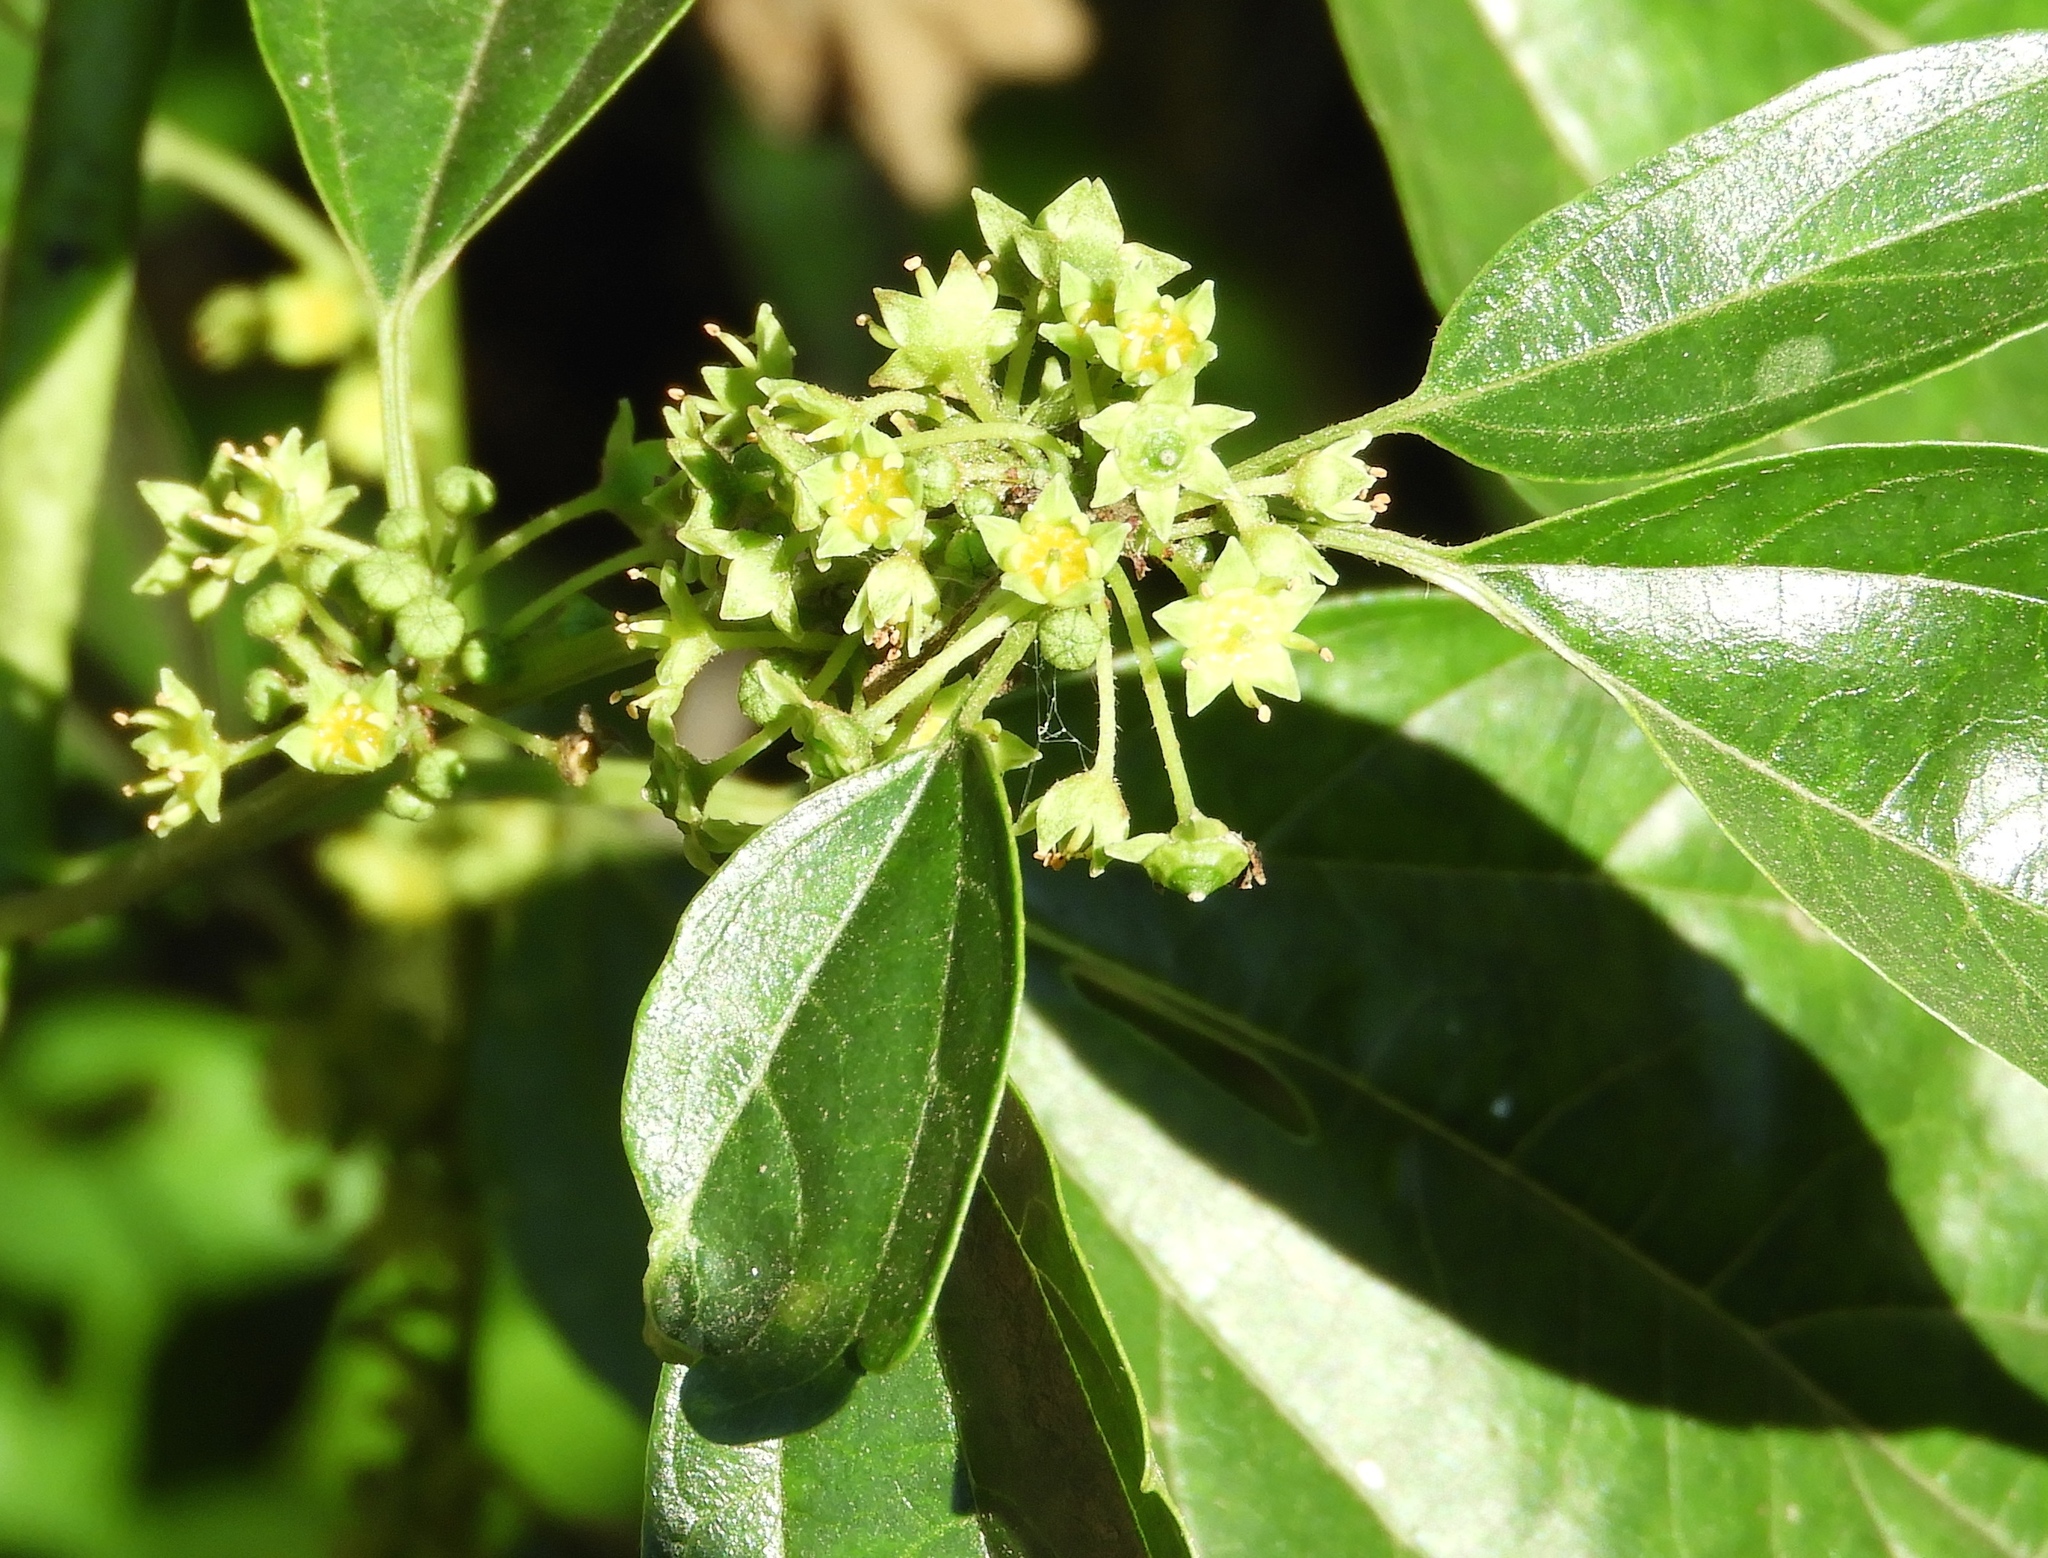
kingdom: Plantae
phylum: Tracheophyta
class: Magnoliopsida
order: Rosales
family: Rhamnaceae
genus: Colubrina
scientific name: Colubrina triflora
